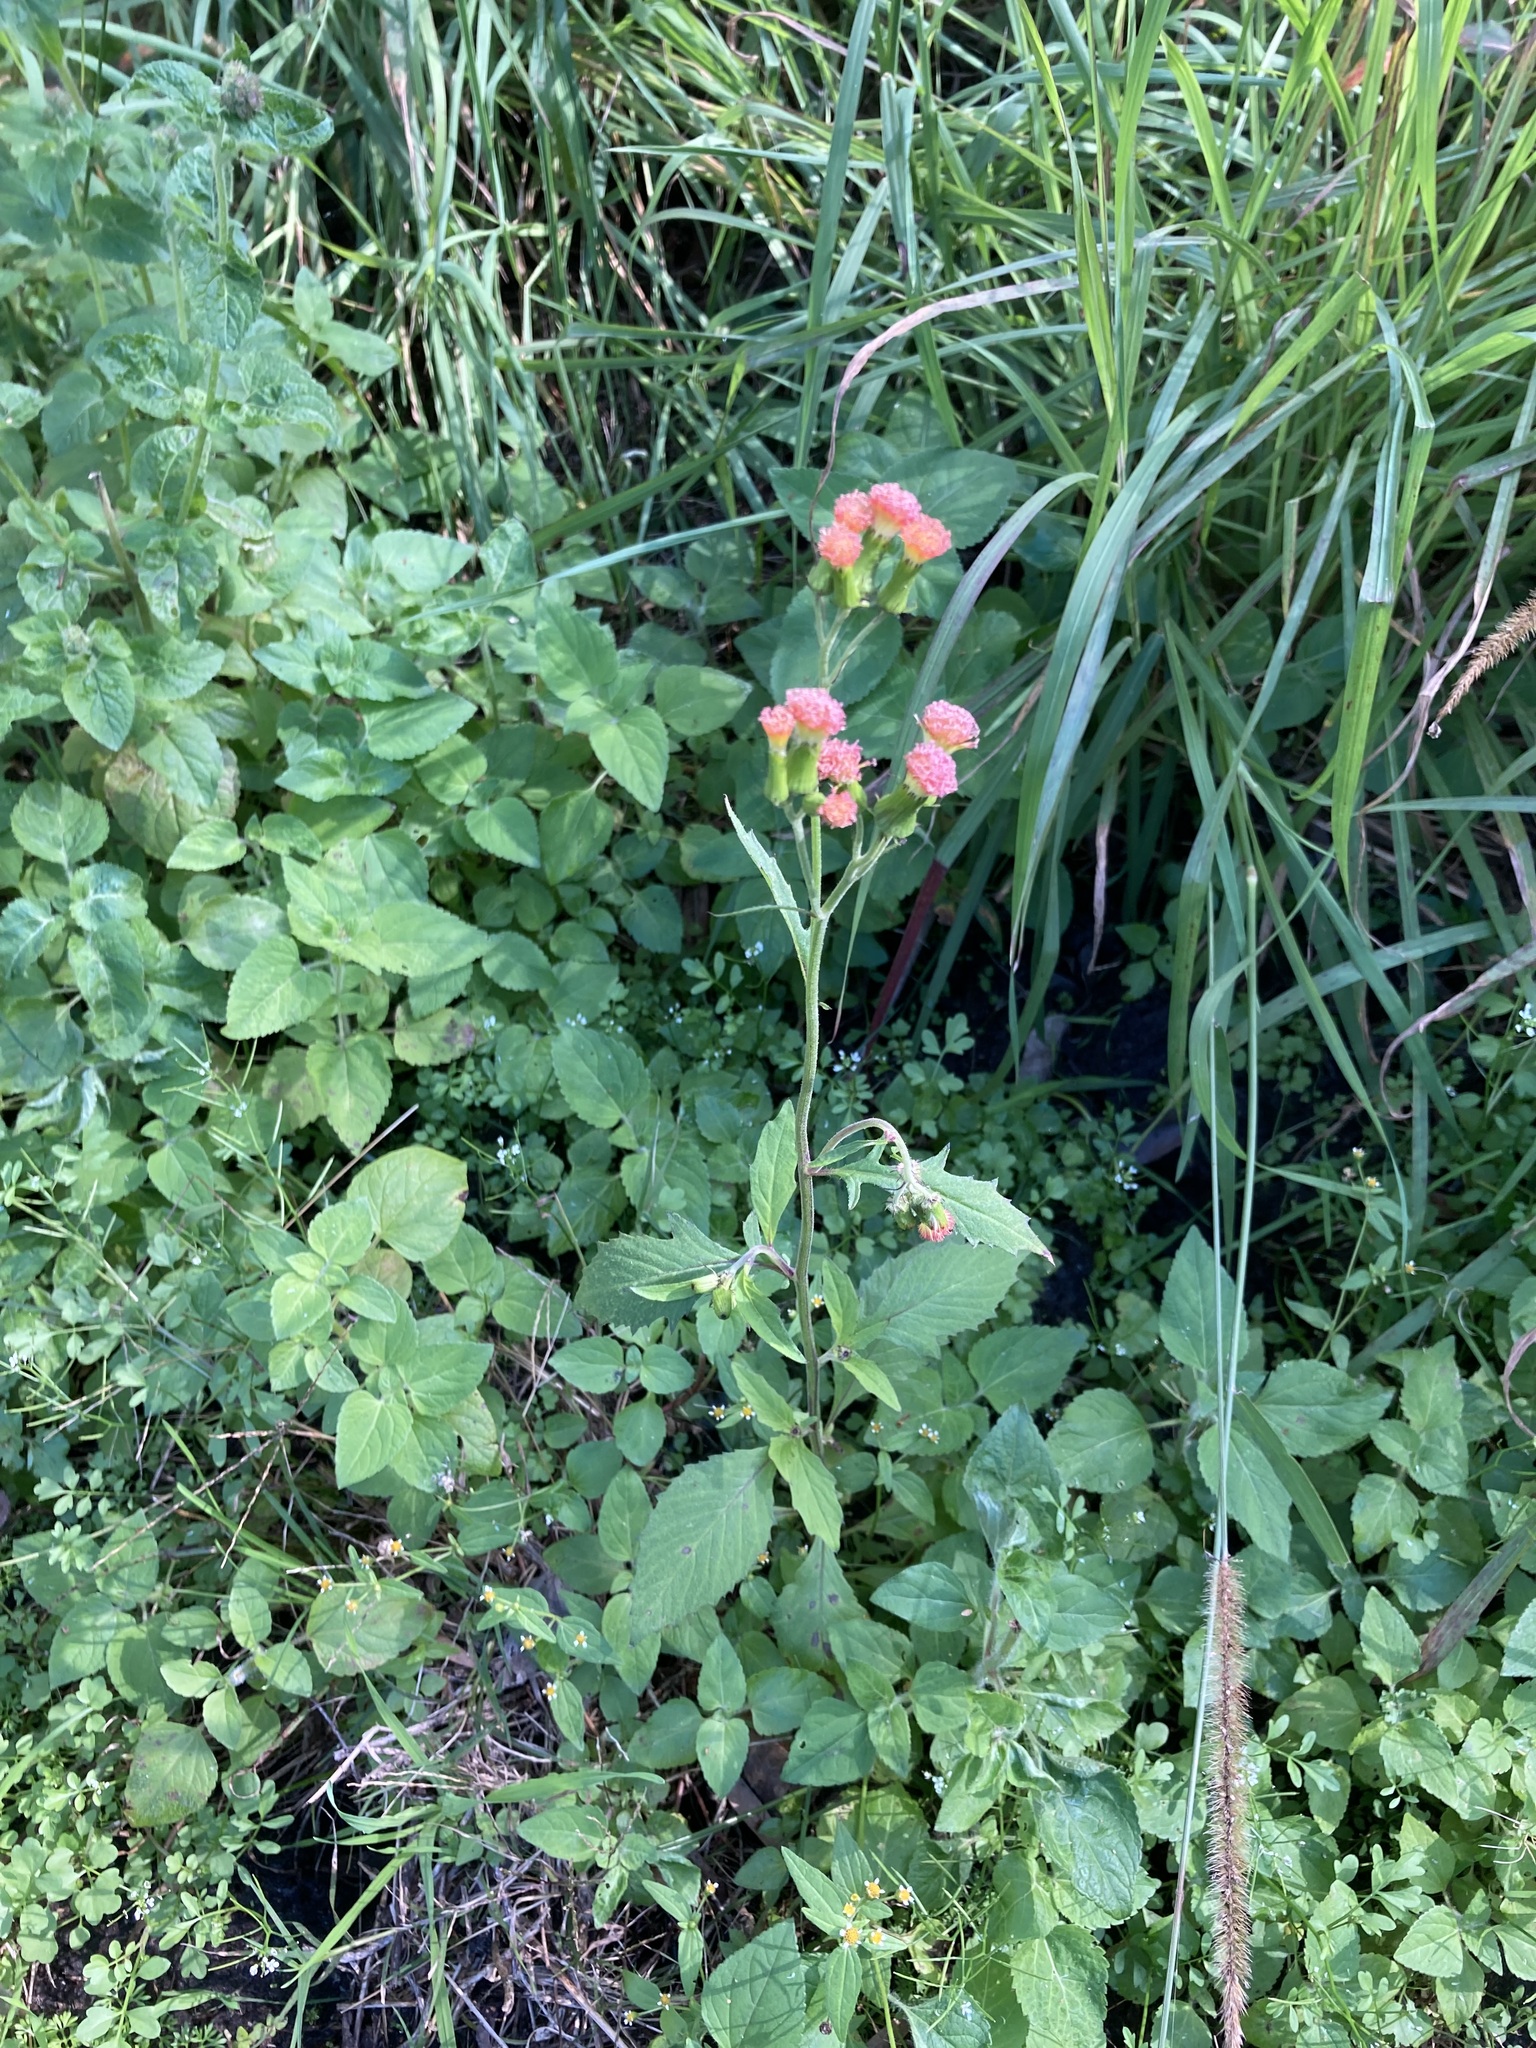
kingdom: Plantae
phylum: Tracheophyta
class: Magnoliopsida
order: Asterales
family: Asteraceae
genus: Crassocephalum
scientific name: Crassocephalum crepidioides
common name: Redflower ragleaf
